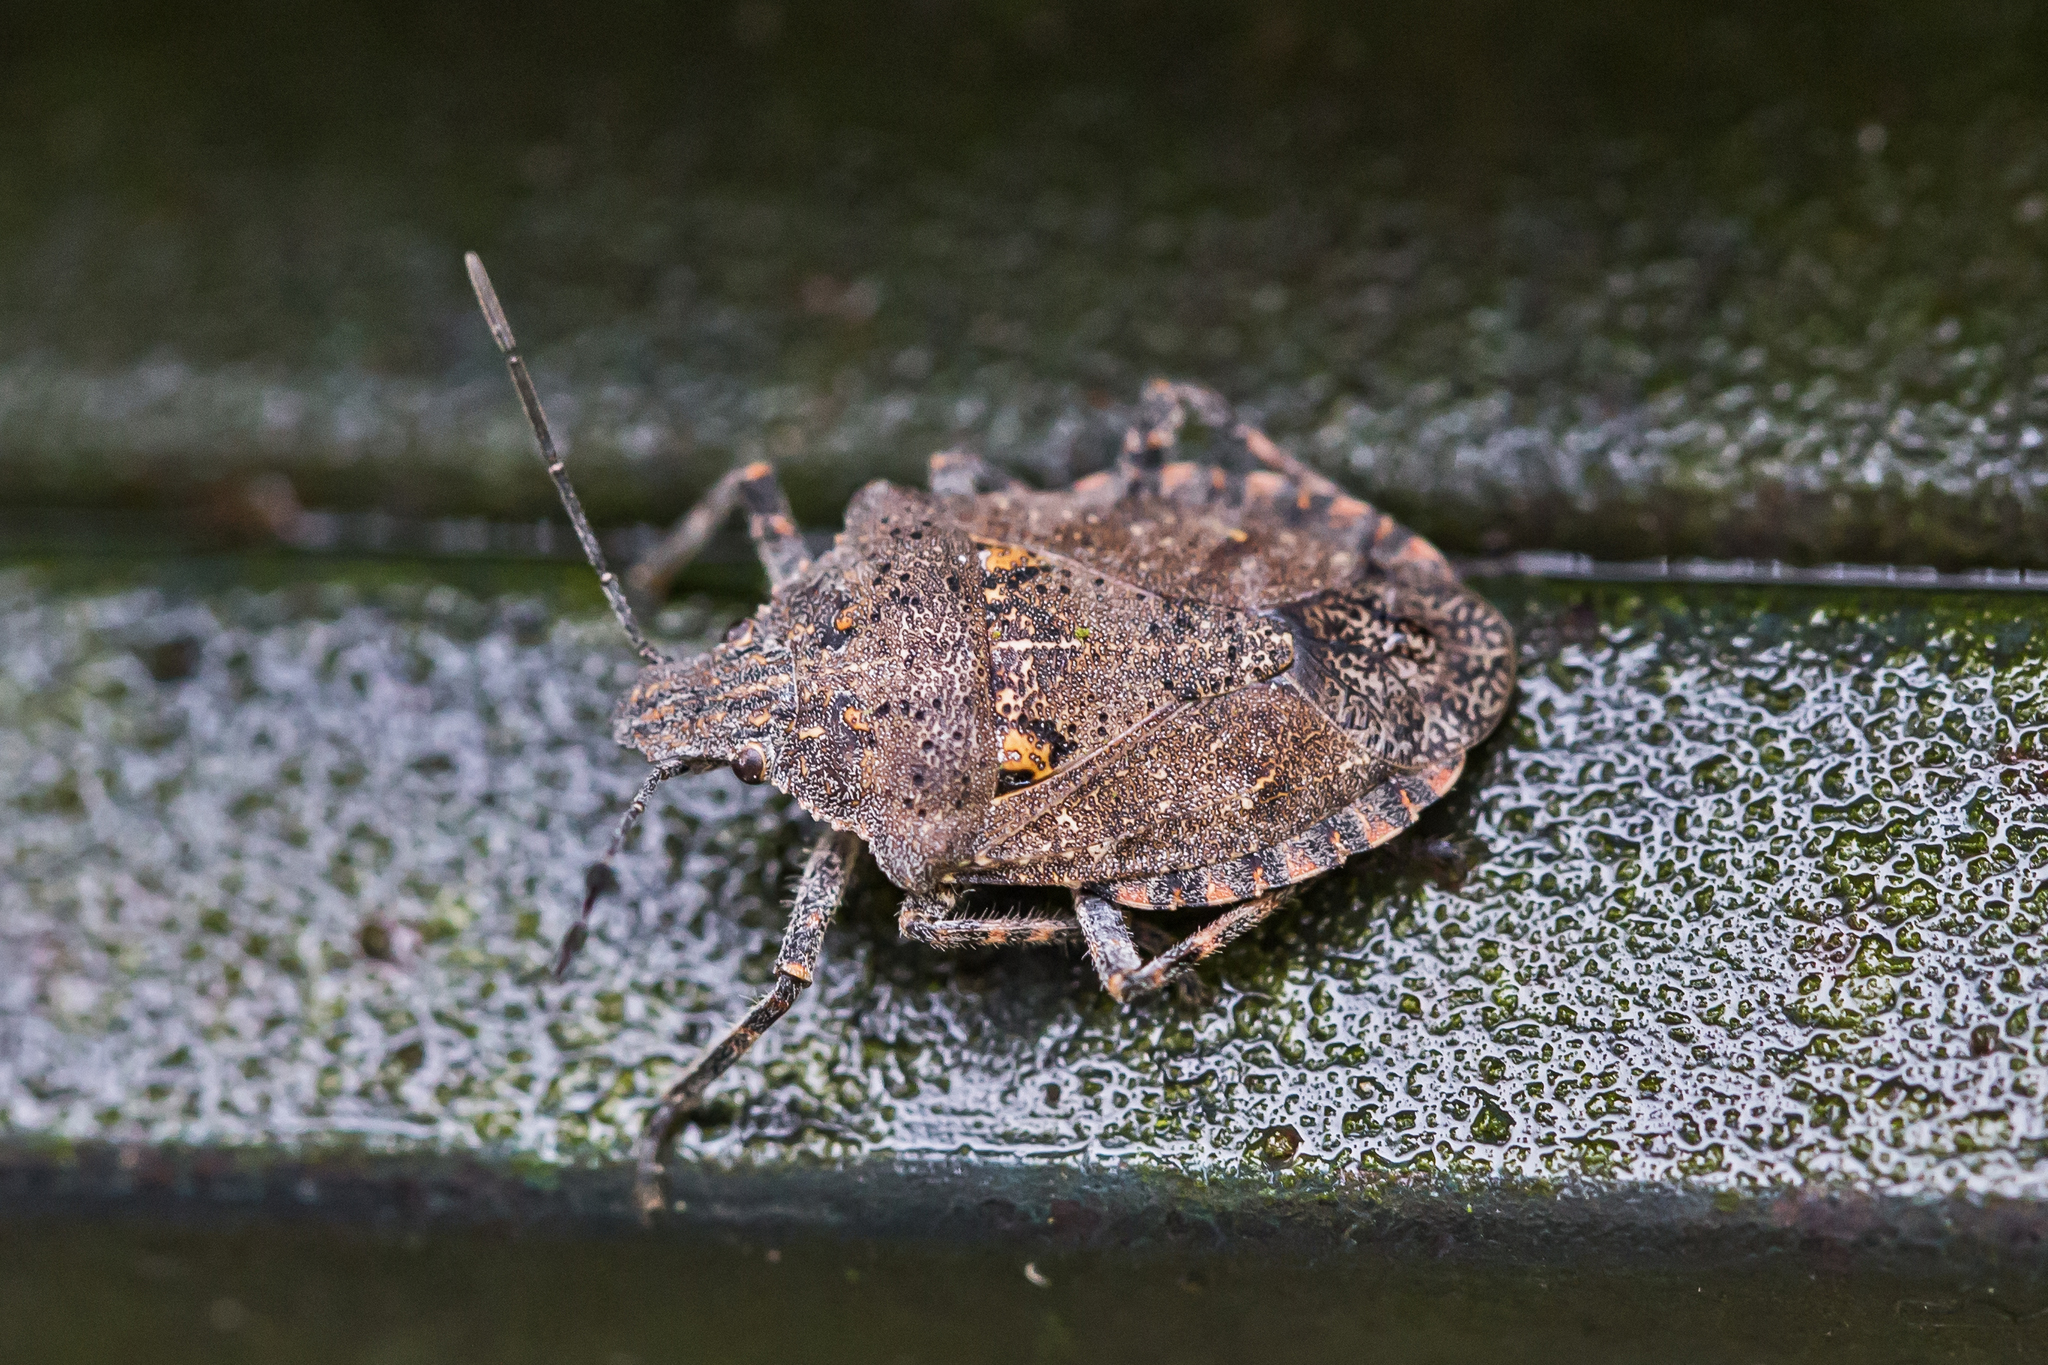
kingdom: Animalia
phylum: Arthropoda
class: Insecta
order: Hemiptera
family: Pentatomidae
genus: Brochymena
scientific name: Brochymena quadripustulata
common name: Four-humped stink bug
